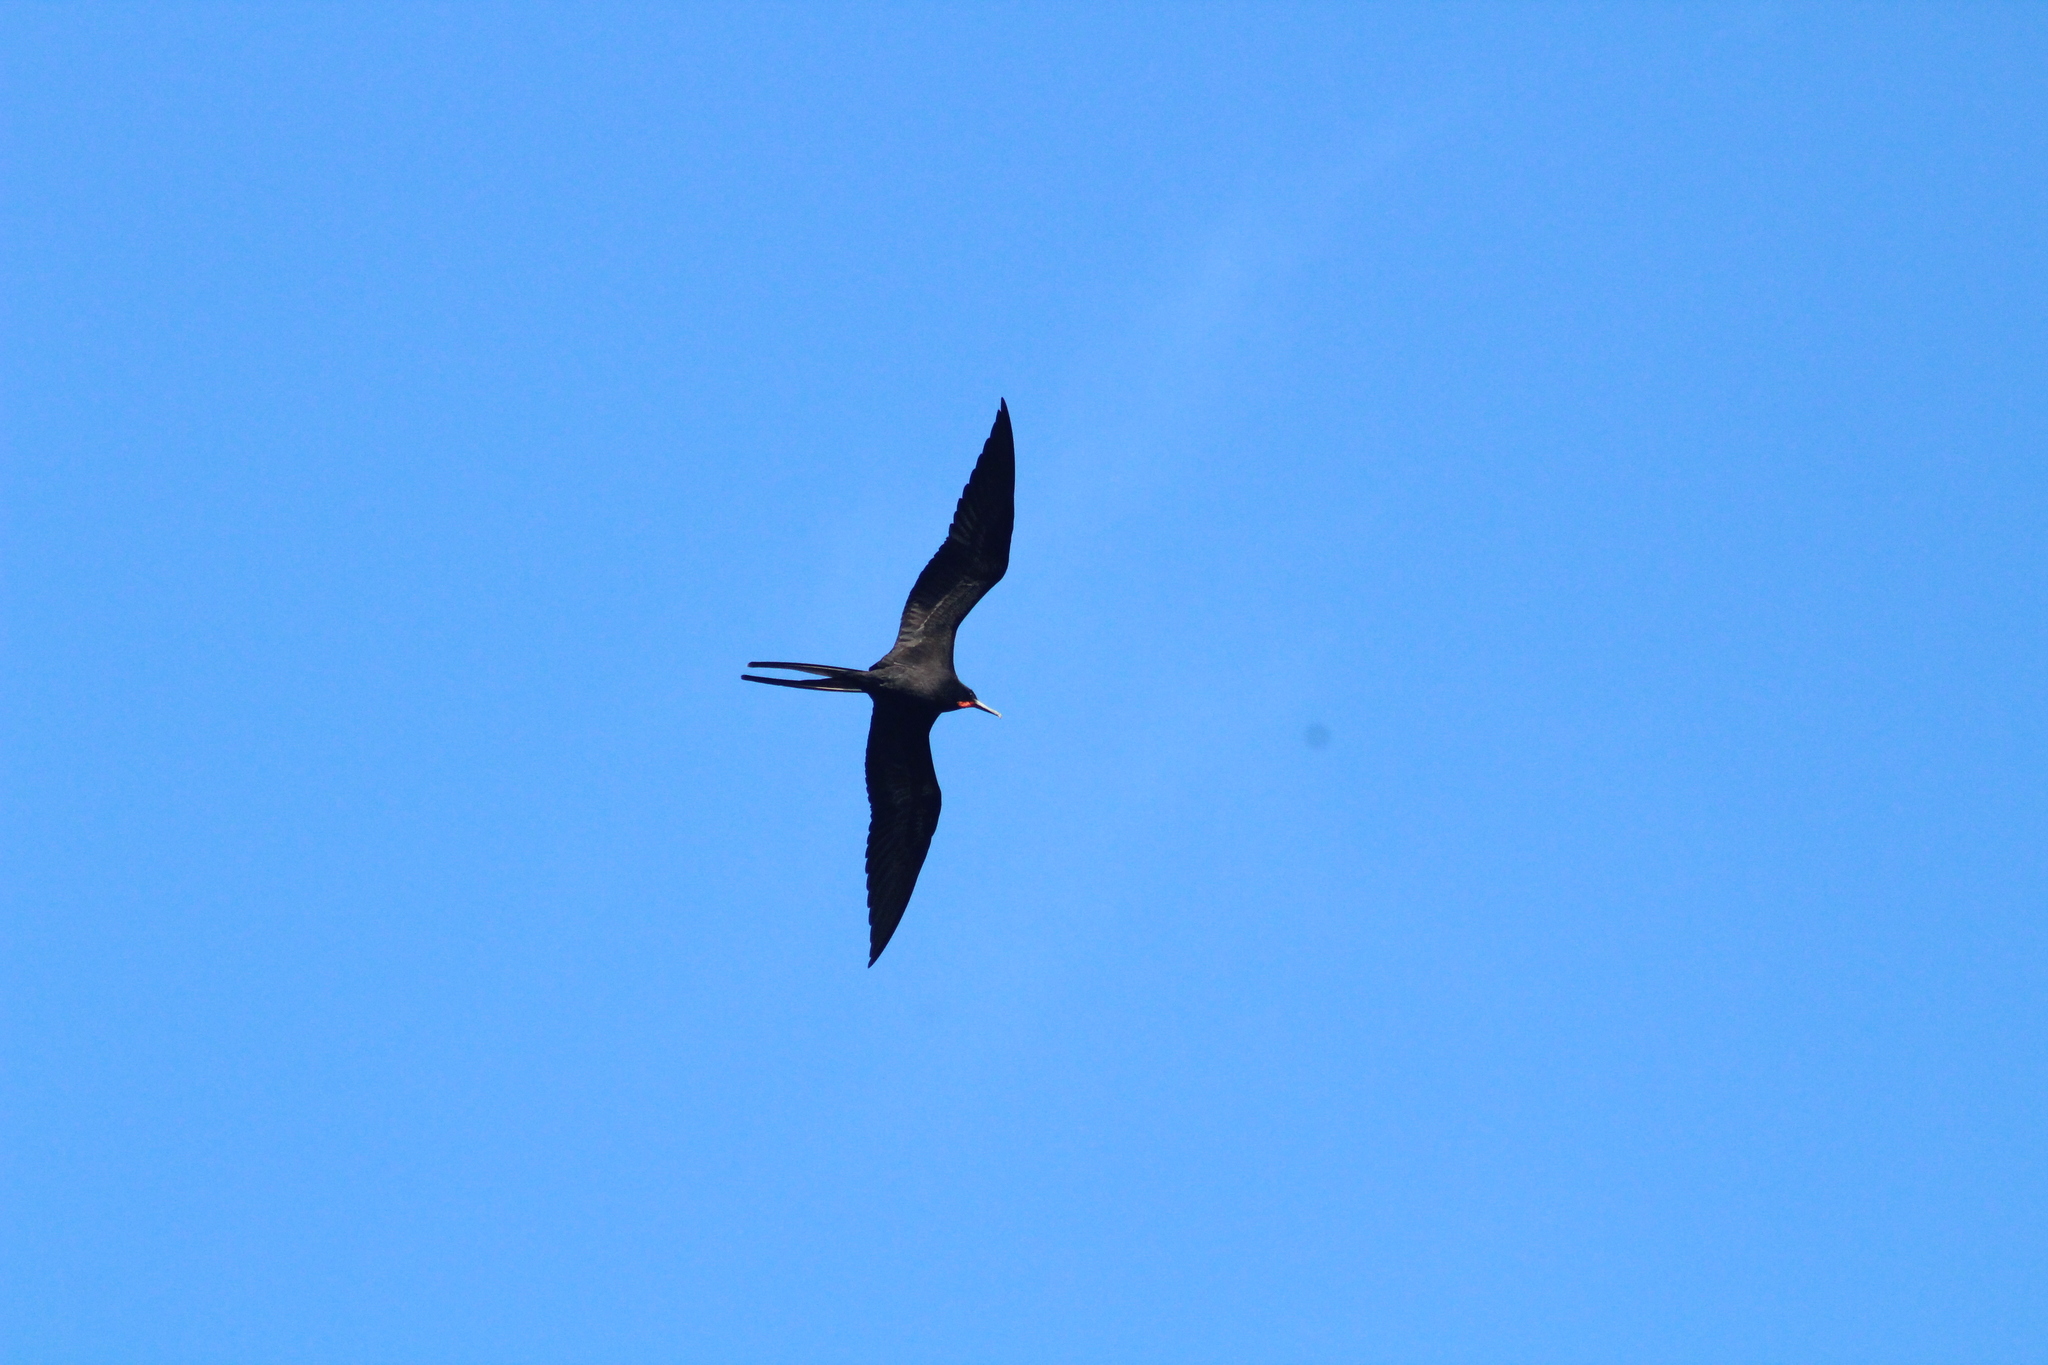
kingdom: Animalia
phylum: Chordata
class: Aves
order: Suliformes
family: Fregatidae
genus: Fregata
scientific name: Fregata magnificens
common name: Magnificent frigatebird
